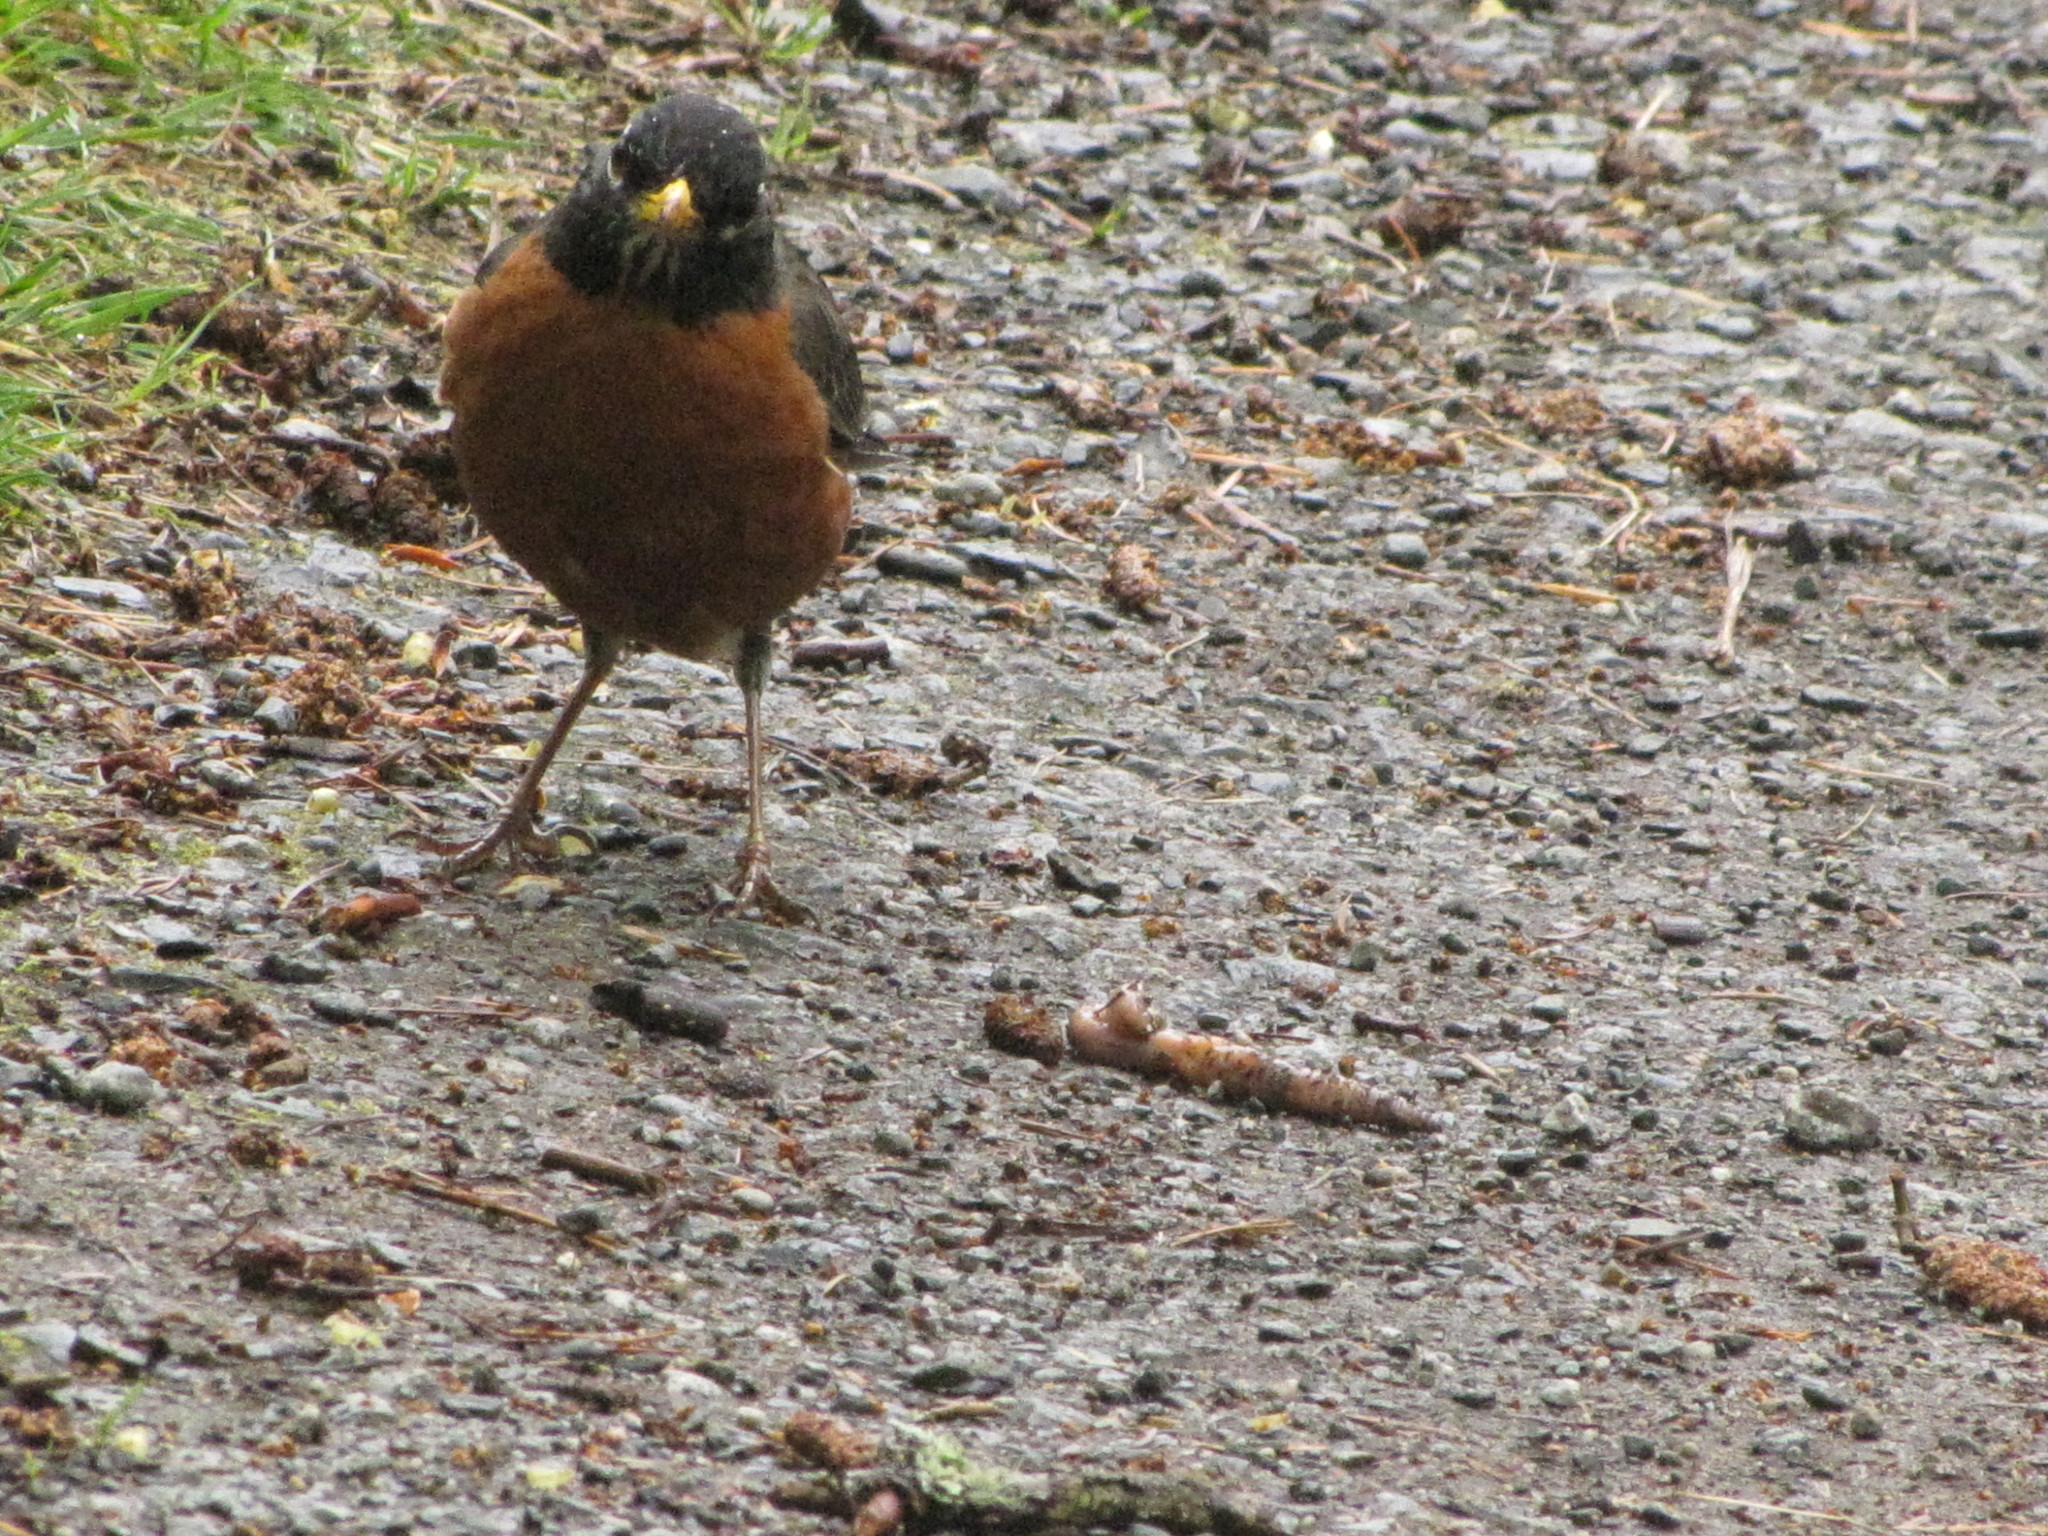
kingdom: Animalia
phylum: Chordata
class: Aves
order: Passeriformes
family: Turdidae
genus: Turdus
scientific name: Turdus migratorius
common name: American robin
